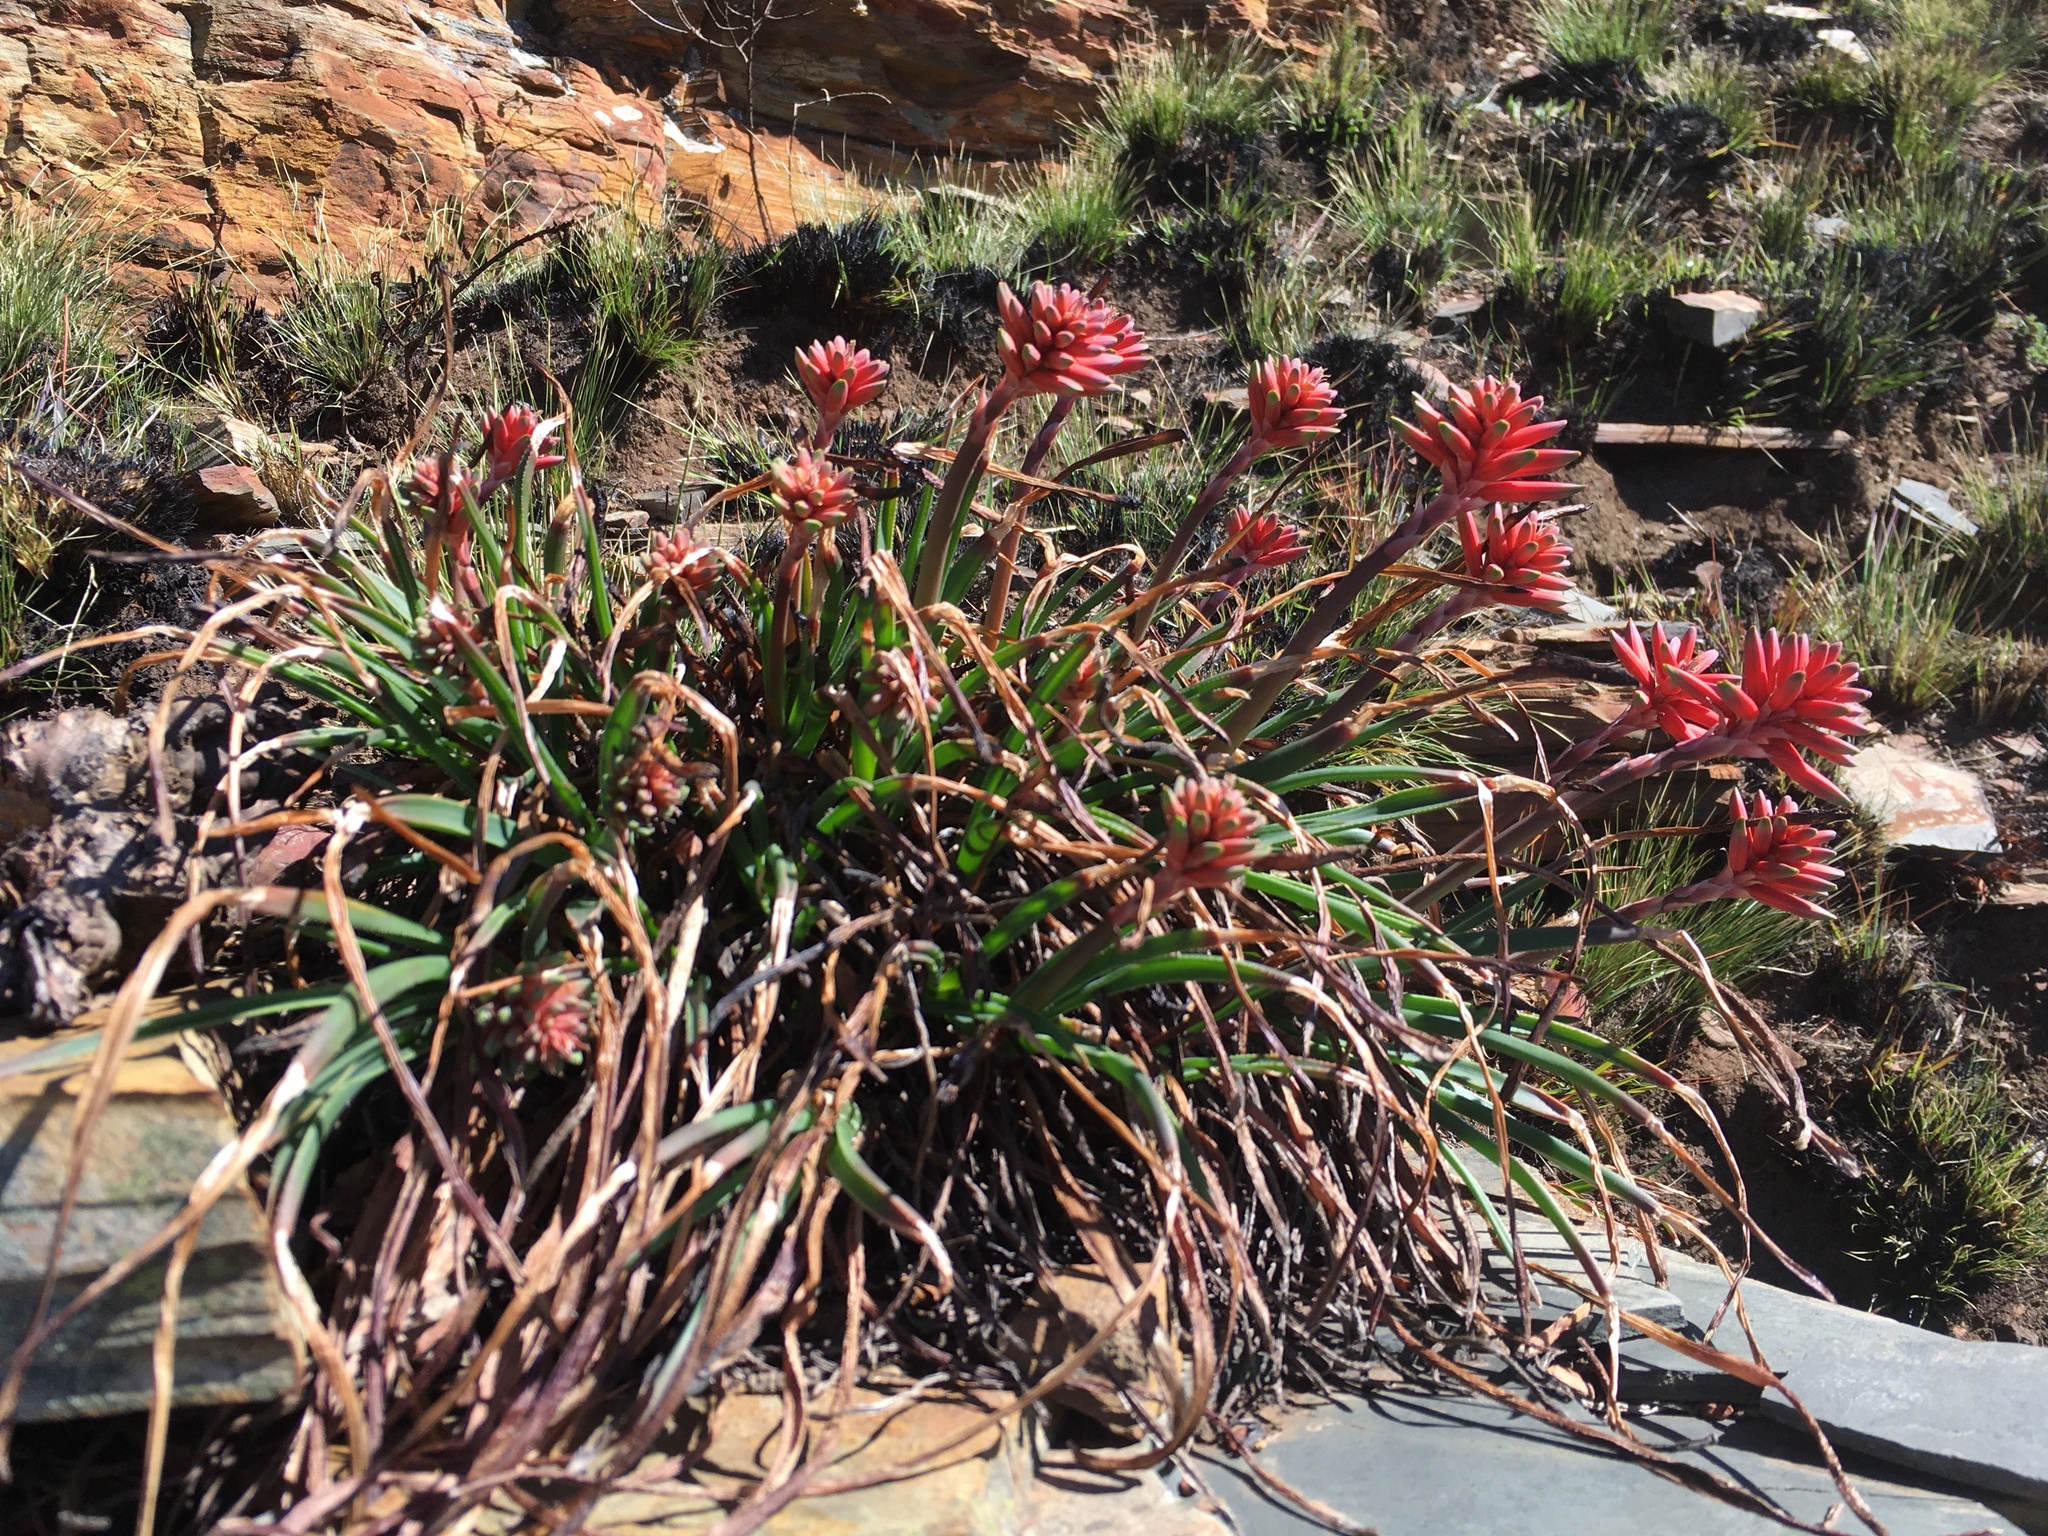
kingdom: Plantae
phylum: Tracheophyta
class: Liliopsida
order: Asparagales
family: Asphodelaceae
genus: Aloe
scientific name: Aloe chortolirioides
